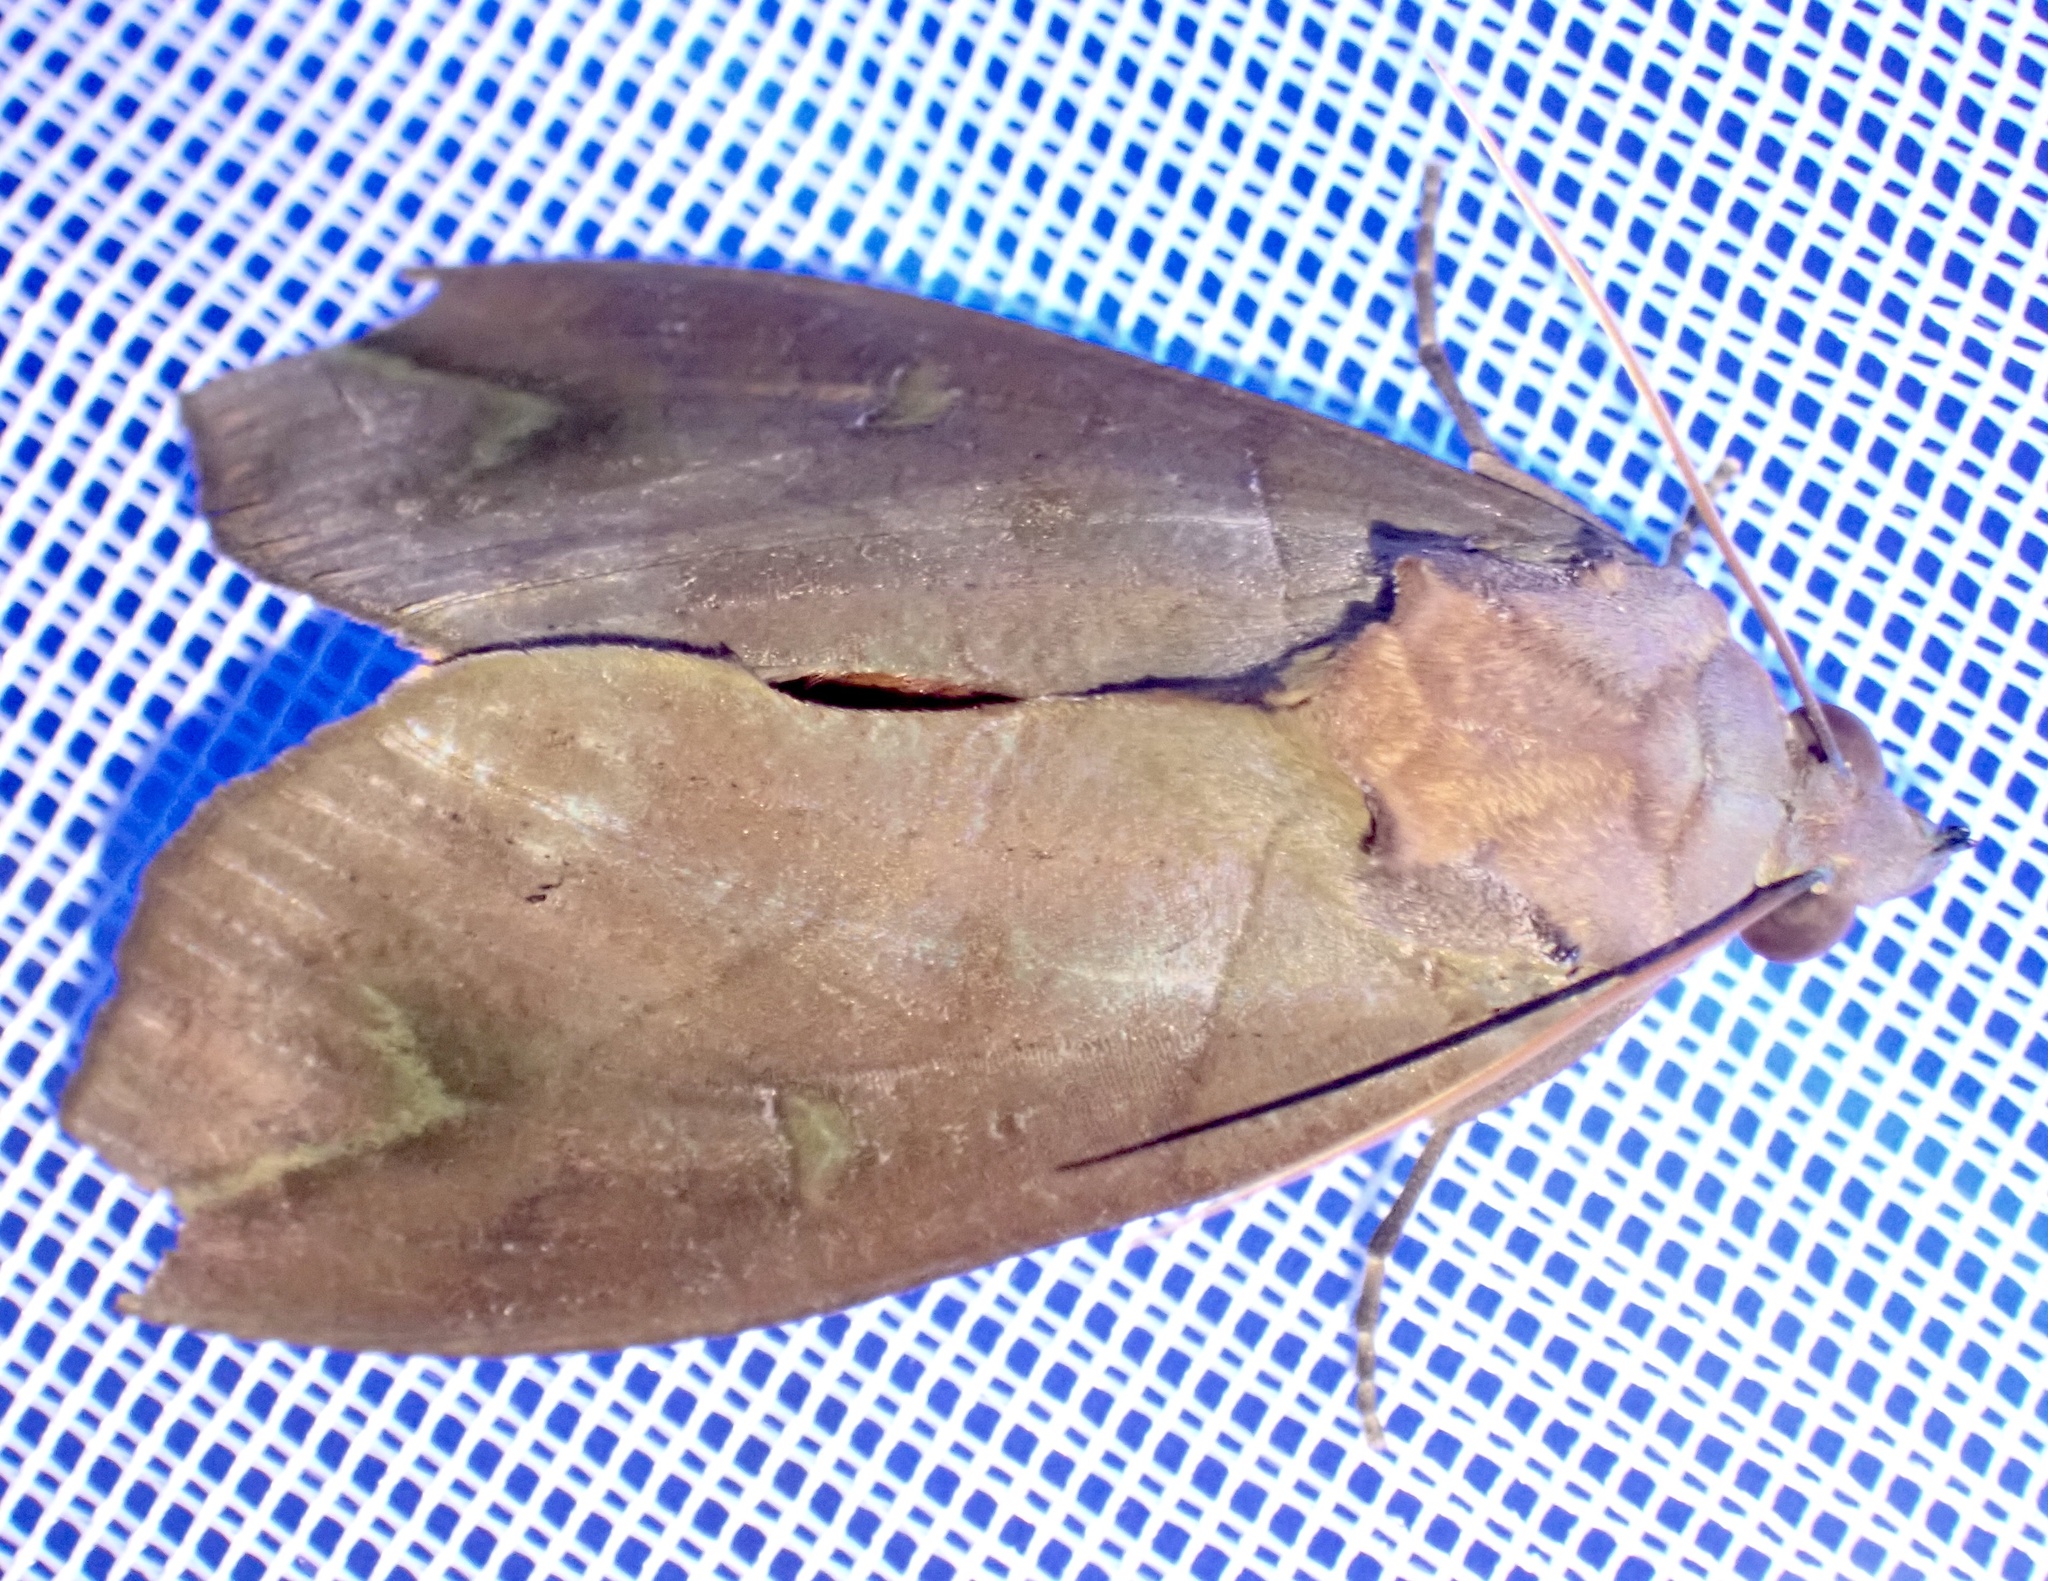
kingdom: Animalia
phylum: Arthropoda
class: Insecta
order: Lepidoptera
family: Erebidae
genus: Eudocima
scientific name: Eudocima afrikana
